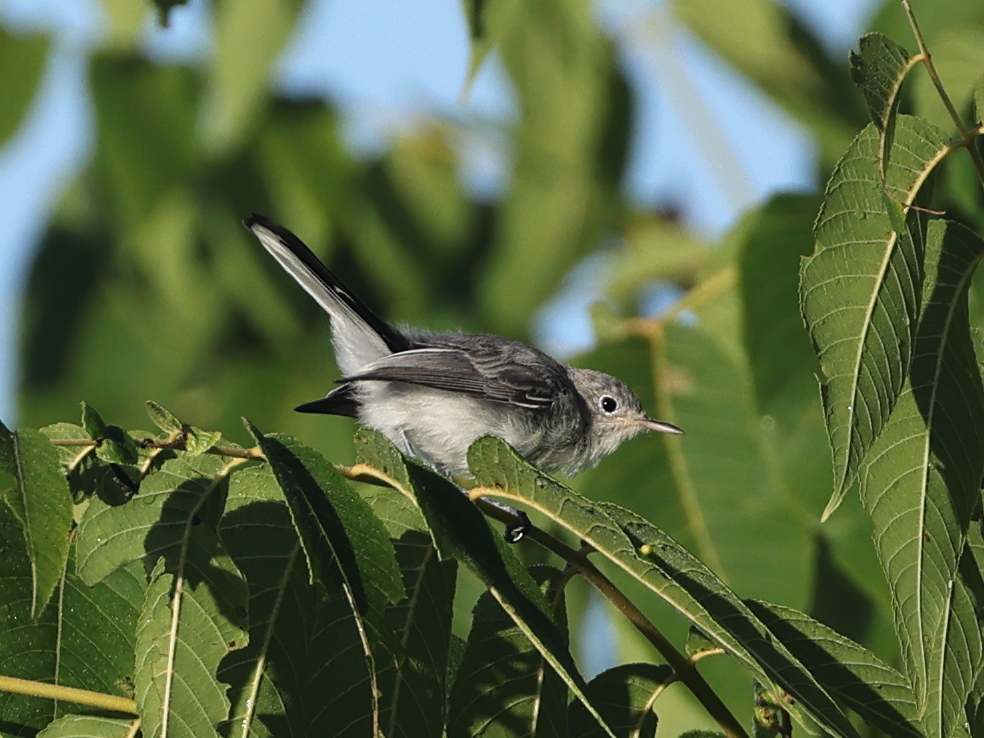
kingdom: Animalia
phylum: Chordata
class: Aves
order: Passeriformes
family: Polioptilidae
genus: Polioptila
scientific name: Polioptila caerulea
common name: Blue-gray gnatcatcher
